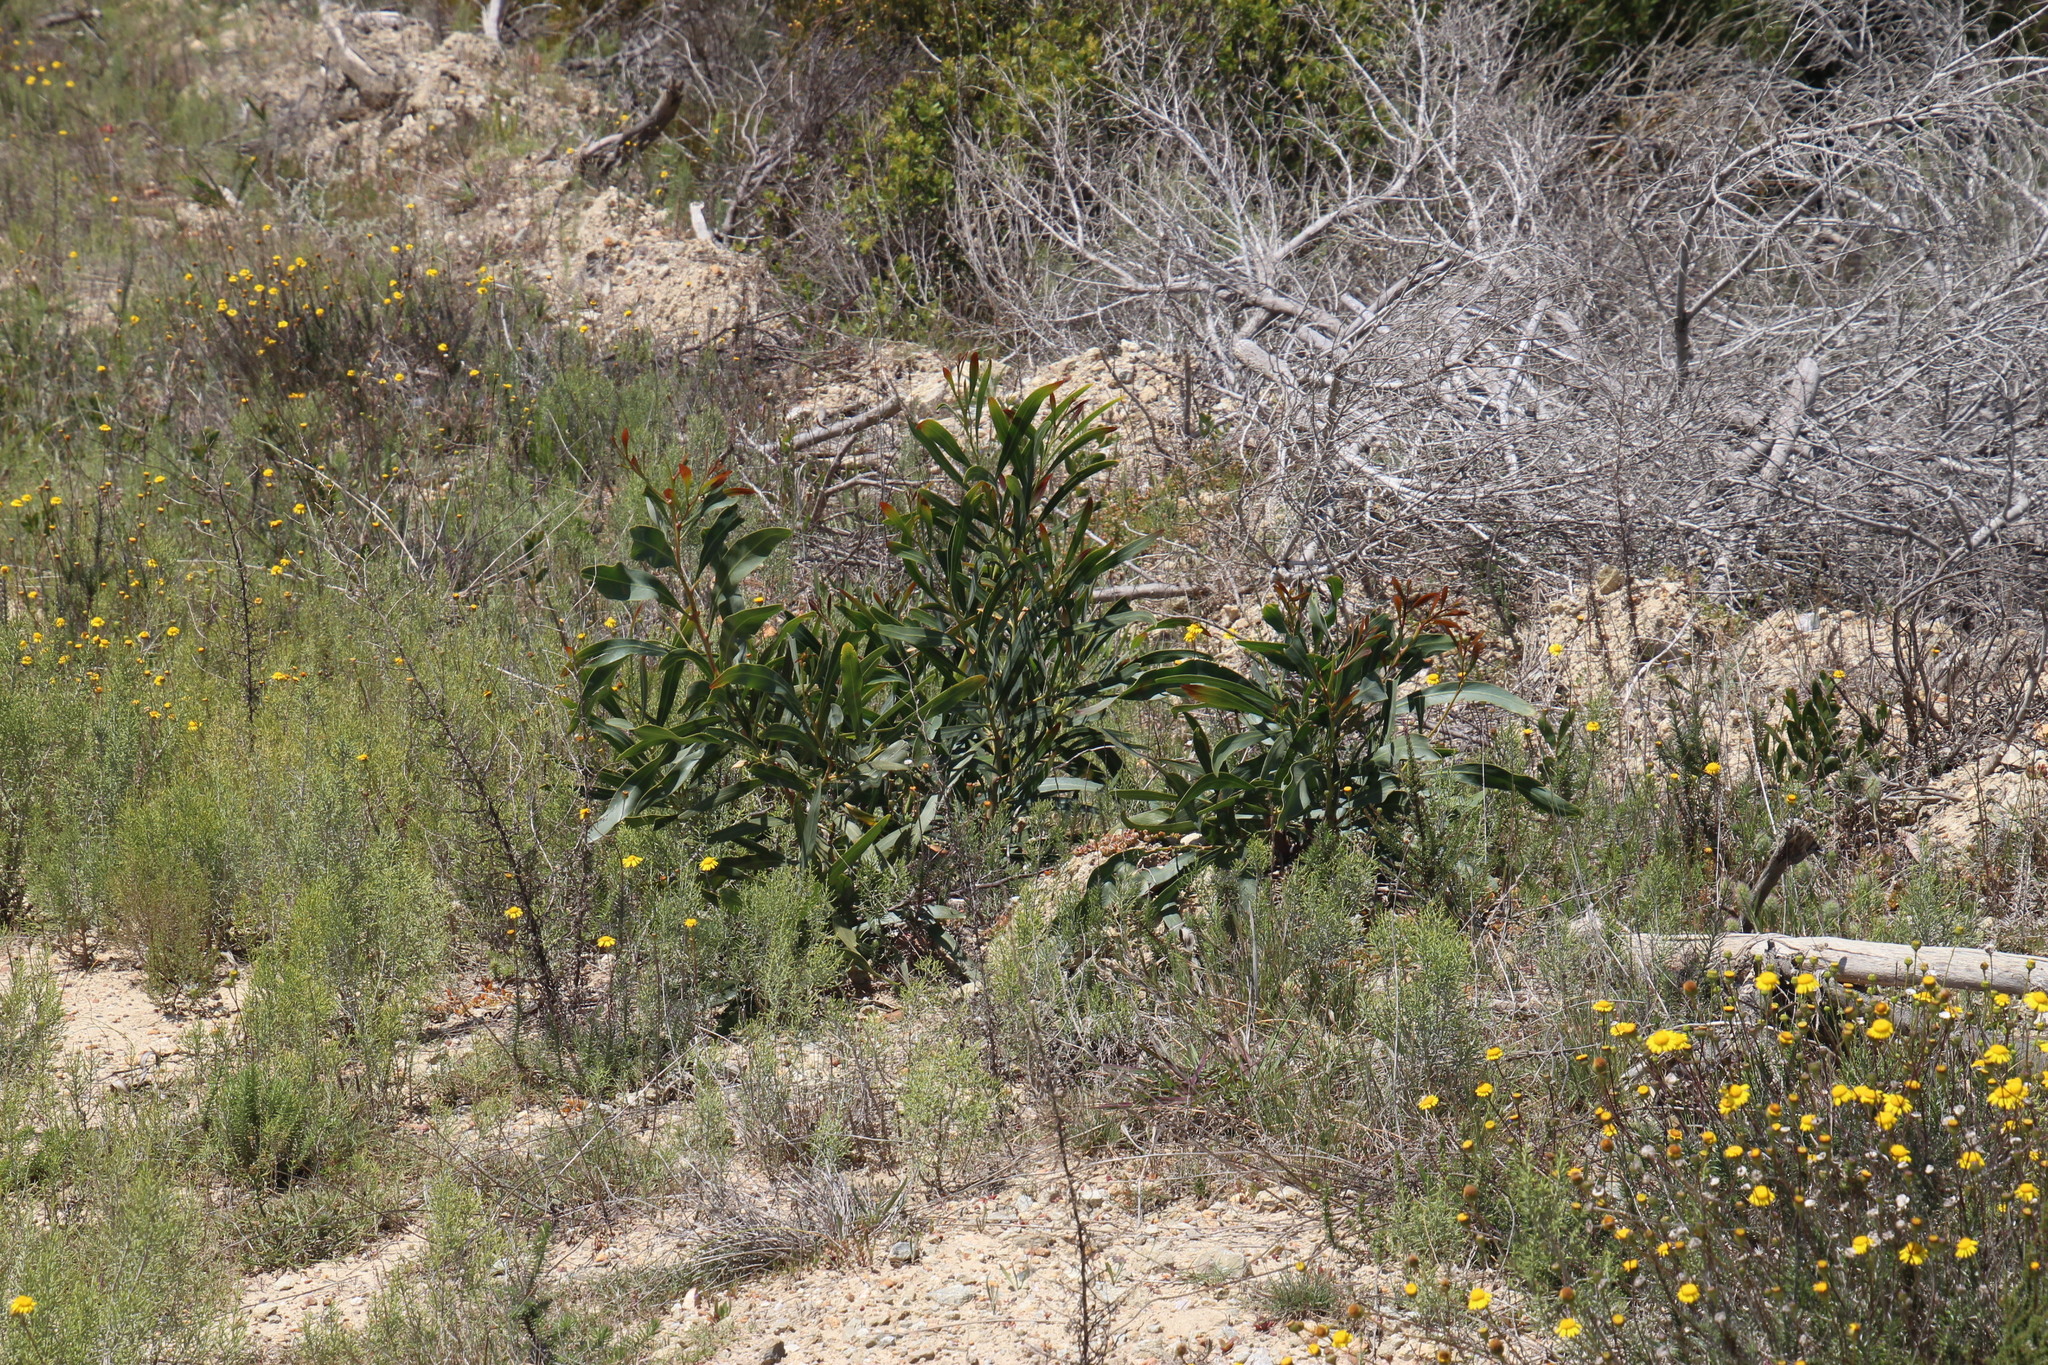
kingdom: Plantae
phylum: Tracheophyta
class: Magnoliopsida
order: Fabales
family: Fabaceae
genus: Acacia
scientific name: Acacia saligna
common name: Orange wattle
